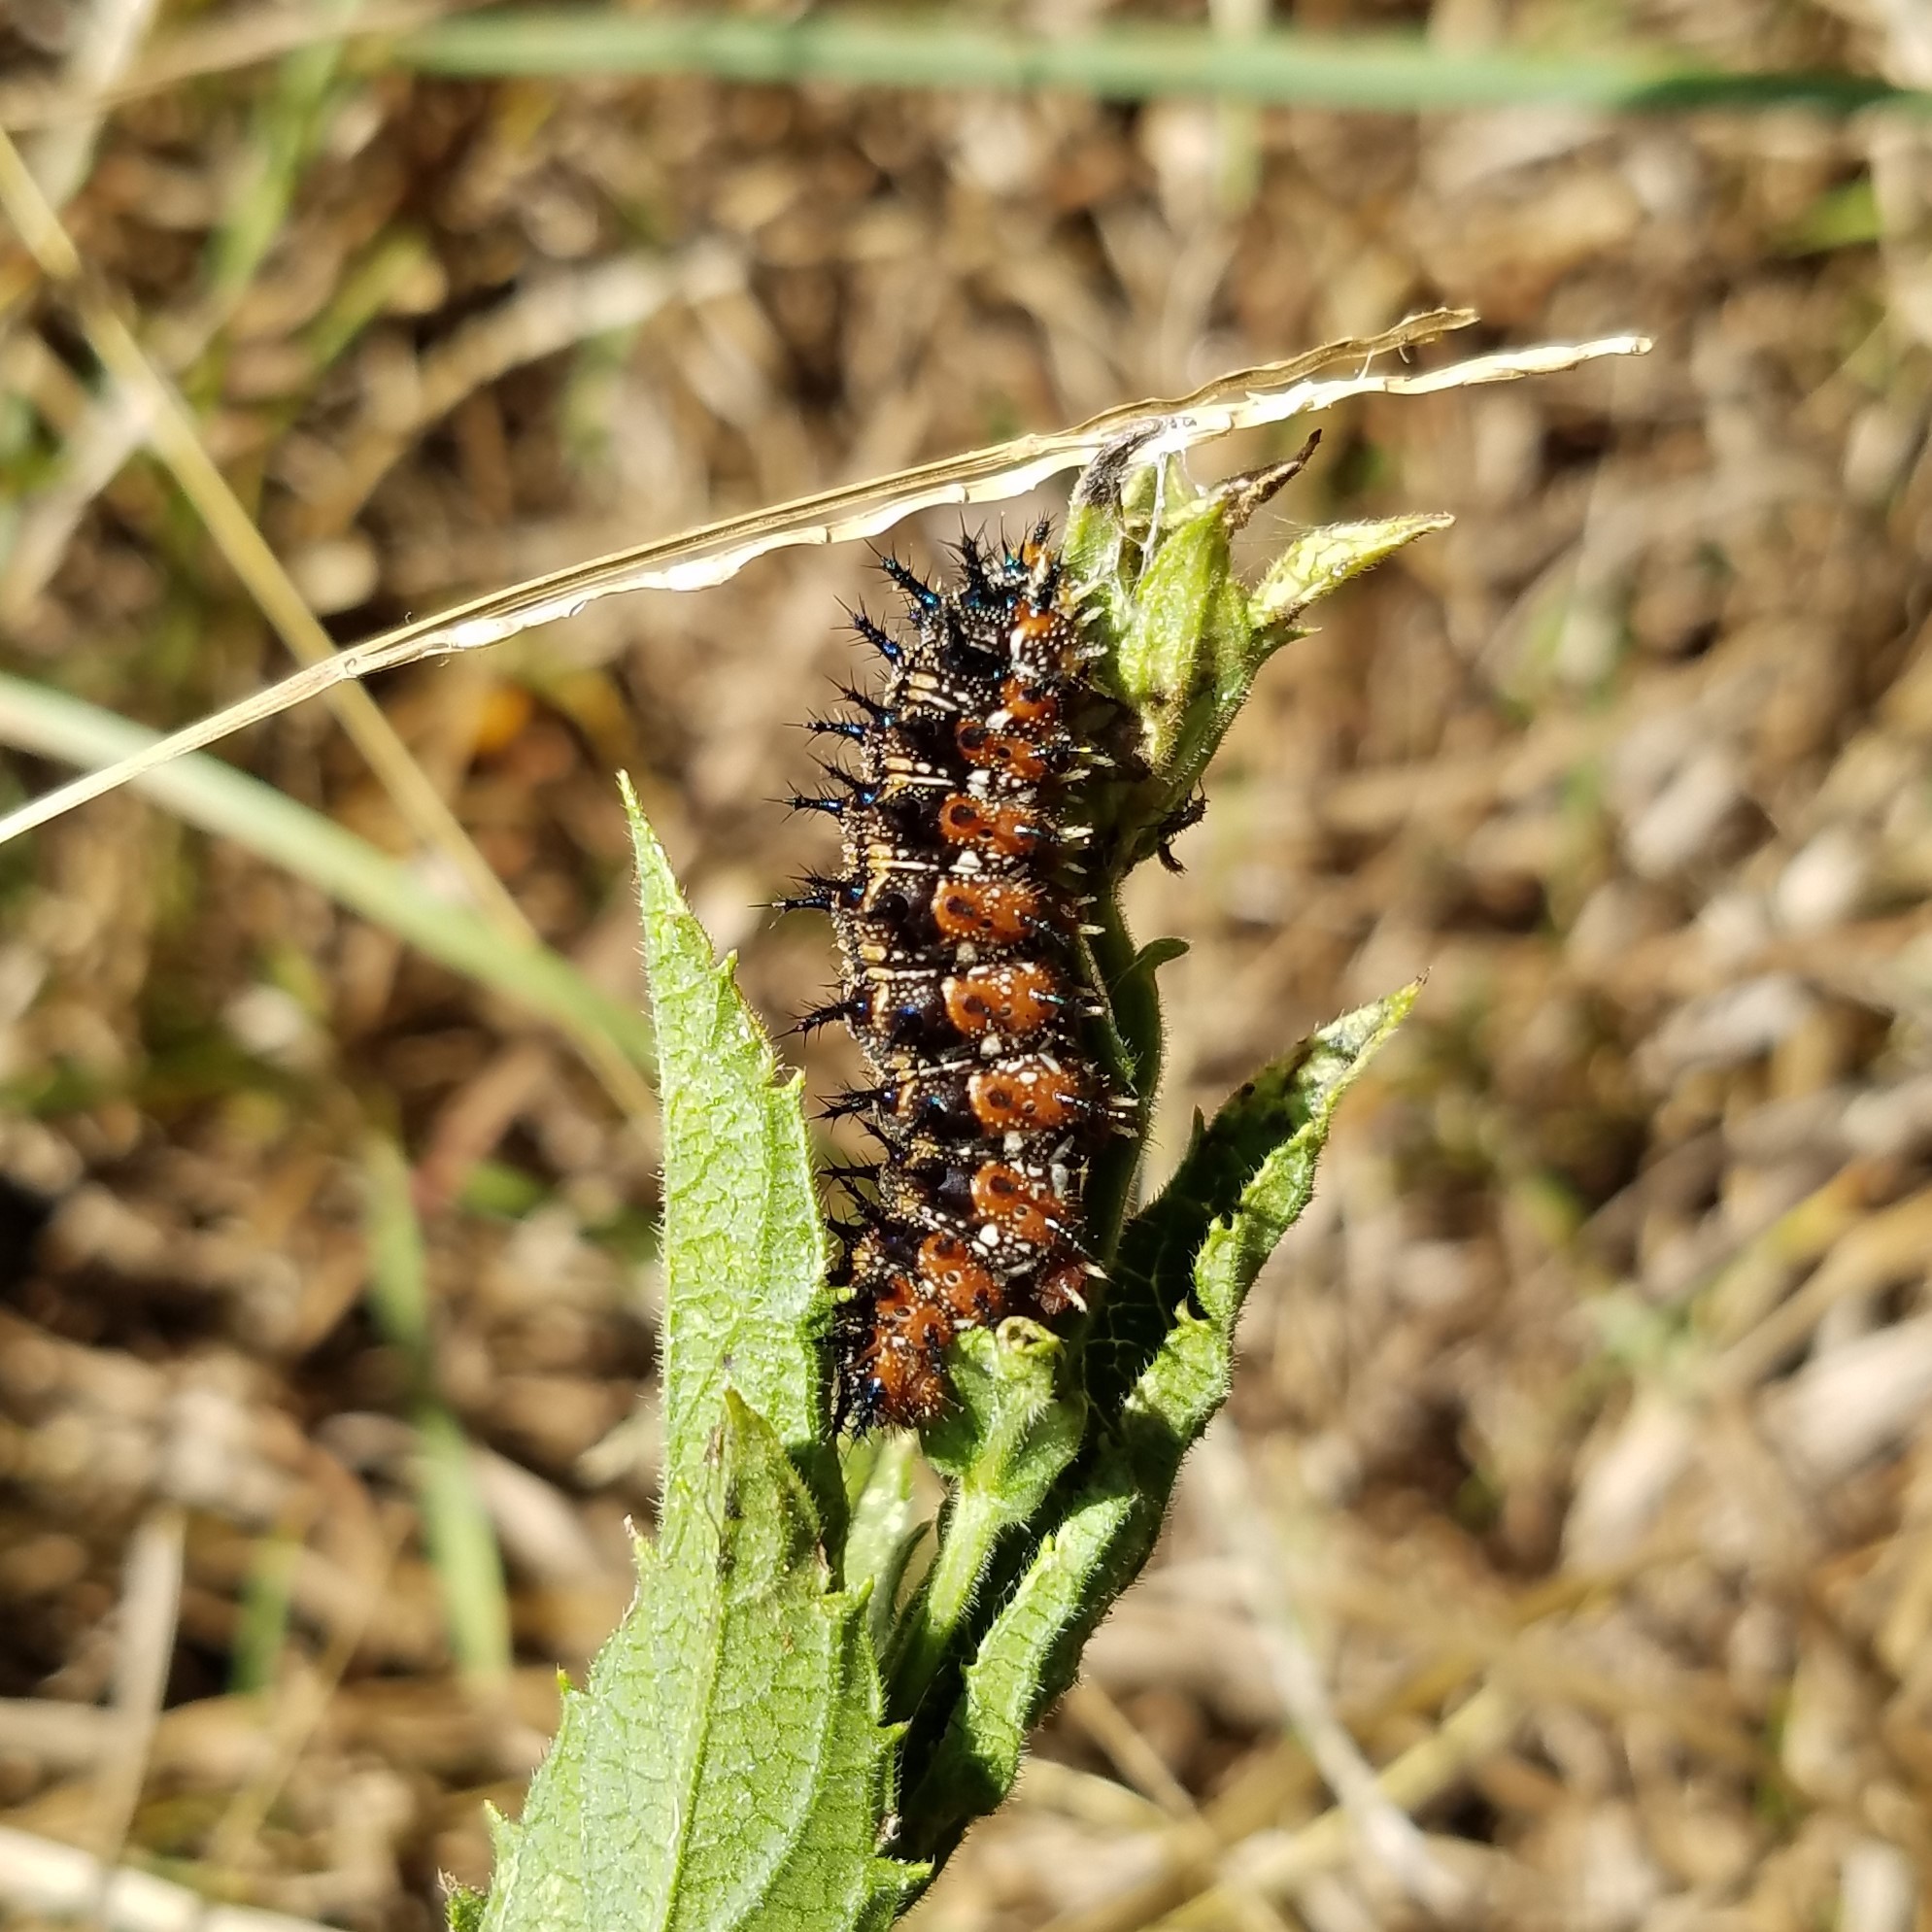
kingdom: Animalia
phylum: Arthropoda
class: Insecta
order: Lepidoptera
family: Nymphalidae
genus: Junonia
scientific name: Junonia coenia
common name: Common buckeye
